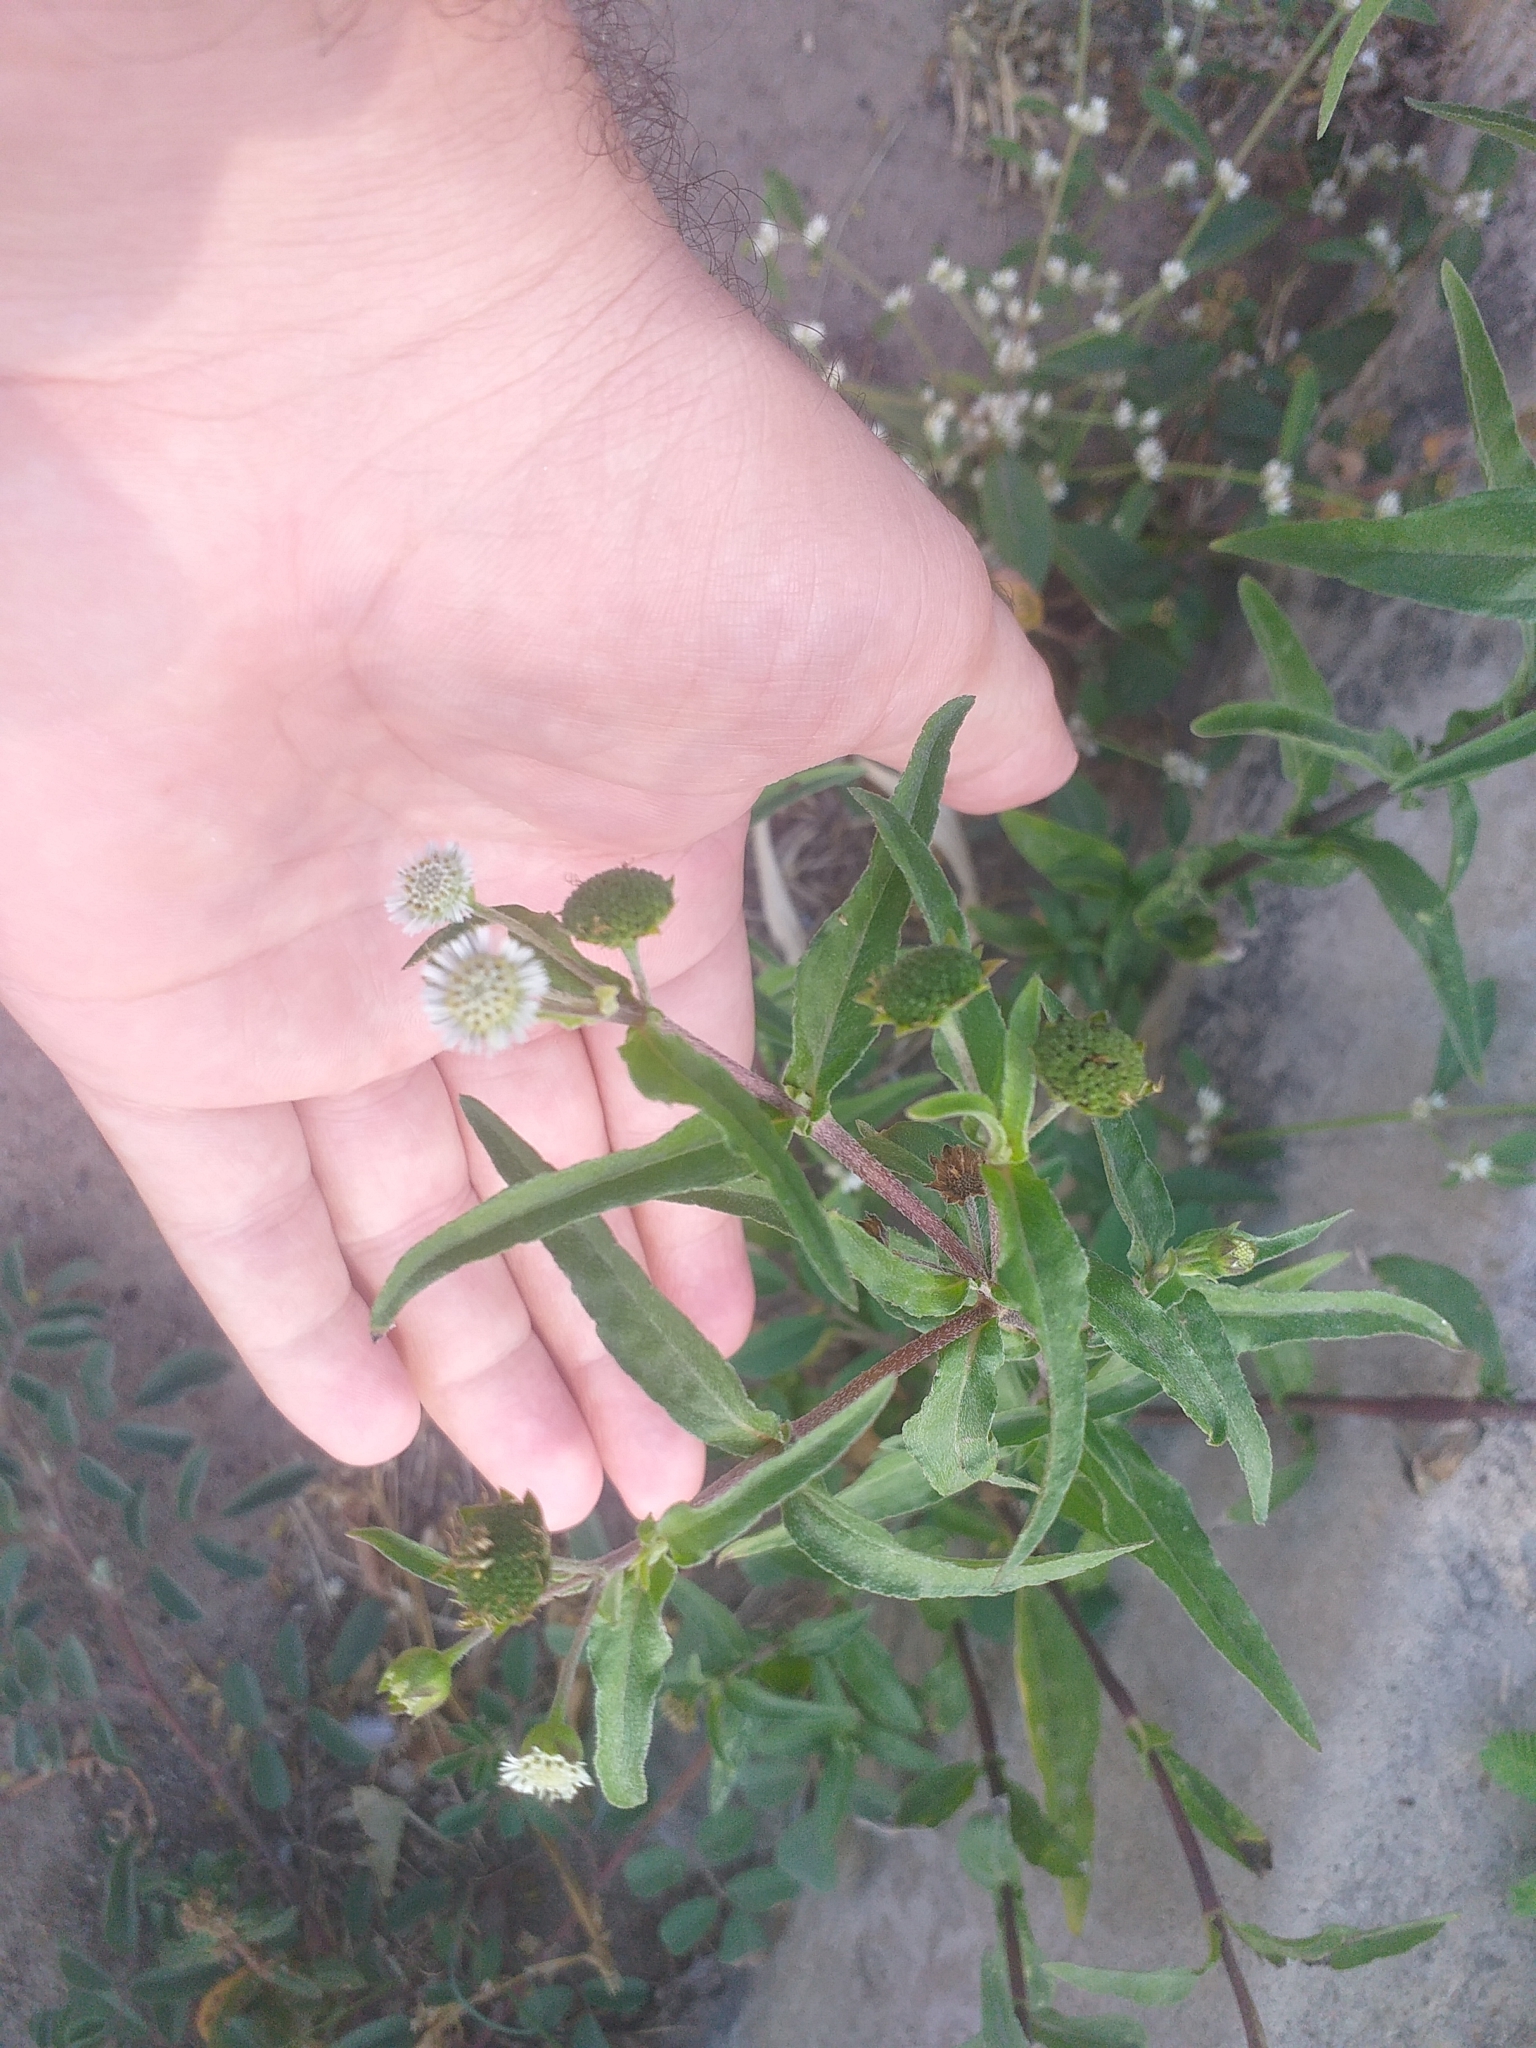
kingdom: Plantae
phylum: Tracheophyta
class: Magnoliopsida
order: Asterales
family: Asteraceae
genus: Eclipta
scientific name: Eclipta prostrata
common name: False daisy
